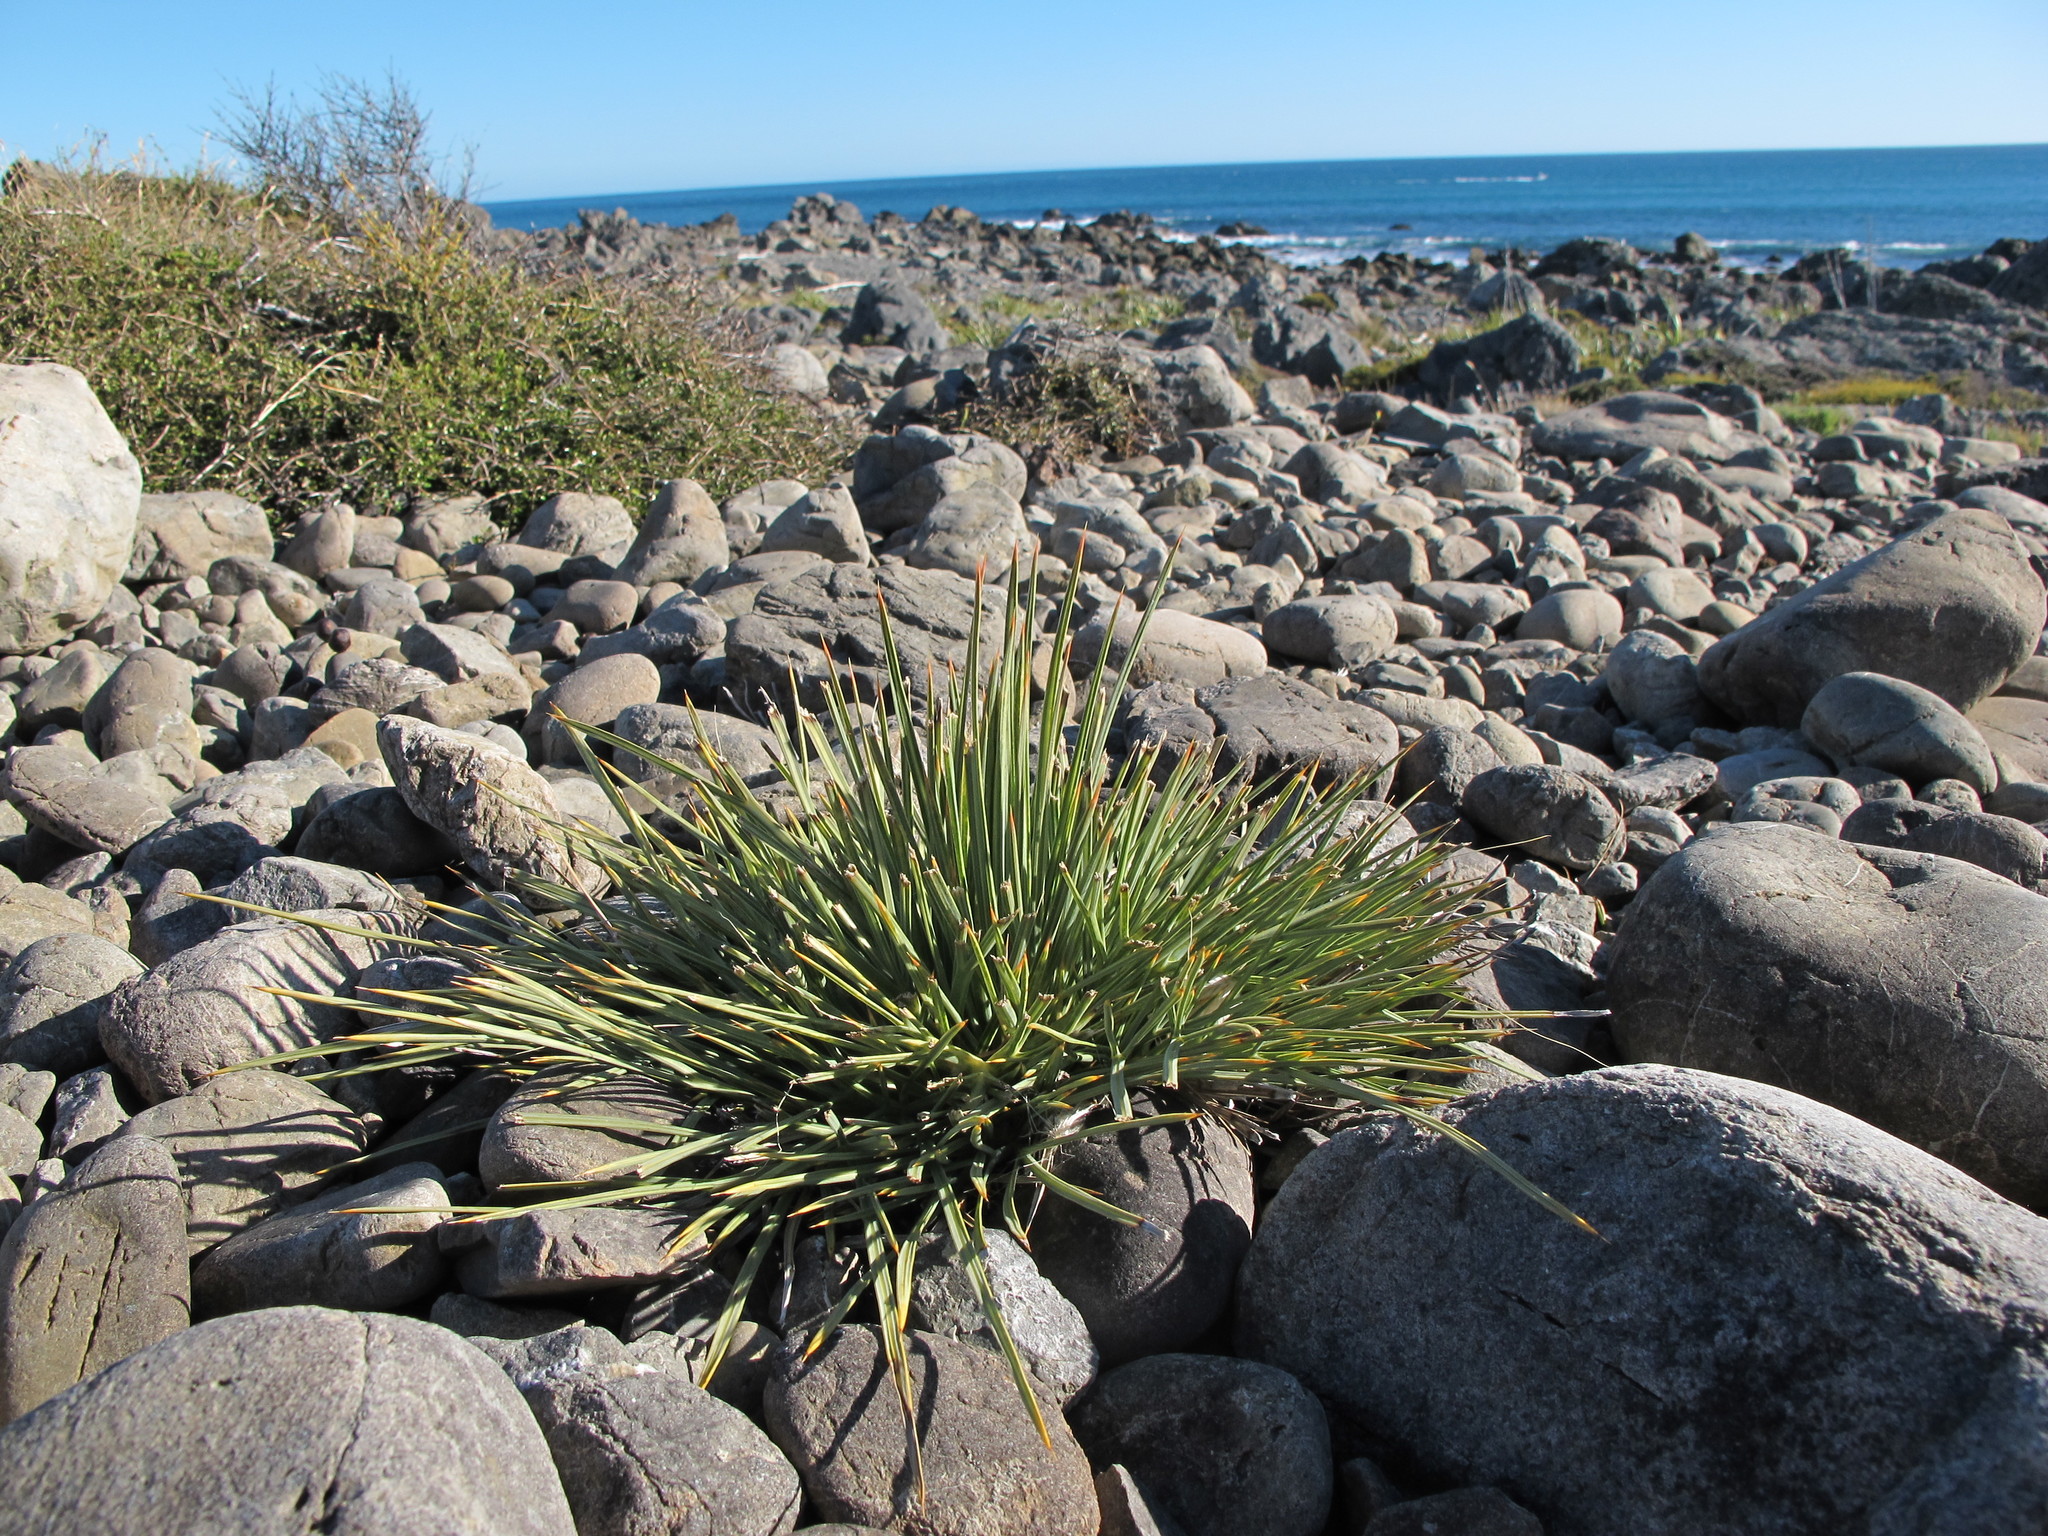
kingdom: Plantae
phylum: Tracheophyta
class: Magnoliopsida
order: Apiales
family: Apiaceae
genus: Aciphylla
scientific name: Aciphylla squarrosa
